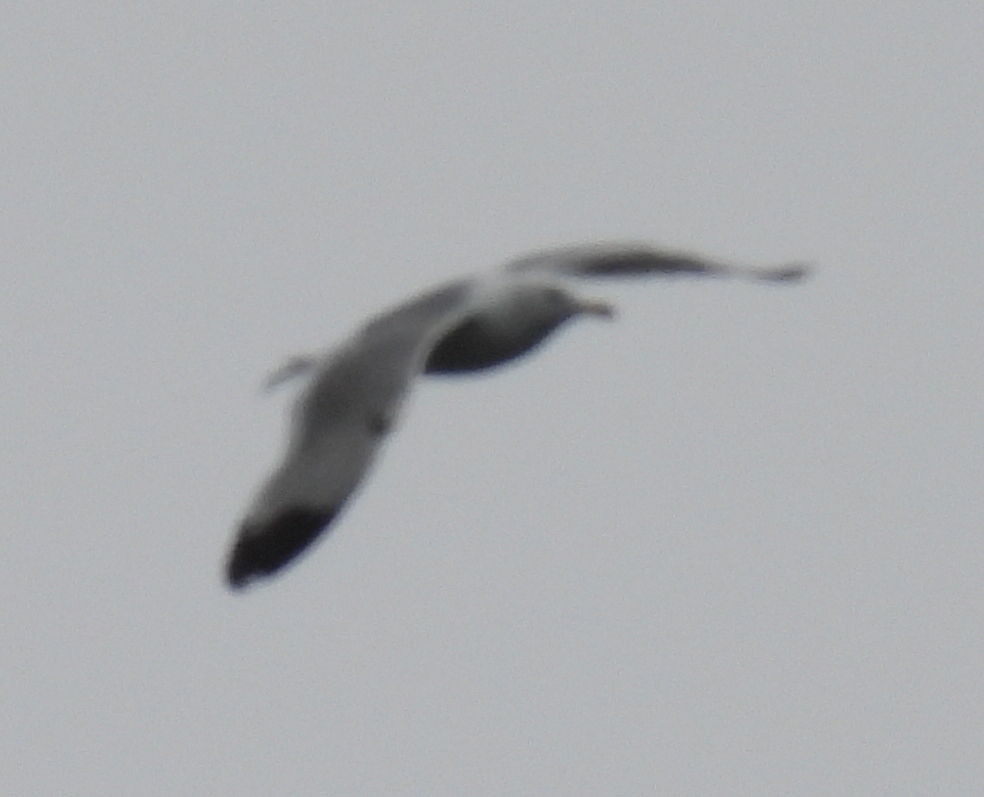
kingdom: Animalia
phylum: Chordata
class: Aves
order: Charadriiformes
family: Laridae
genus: Larus
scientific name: Larus californicus
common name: California gull
